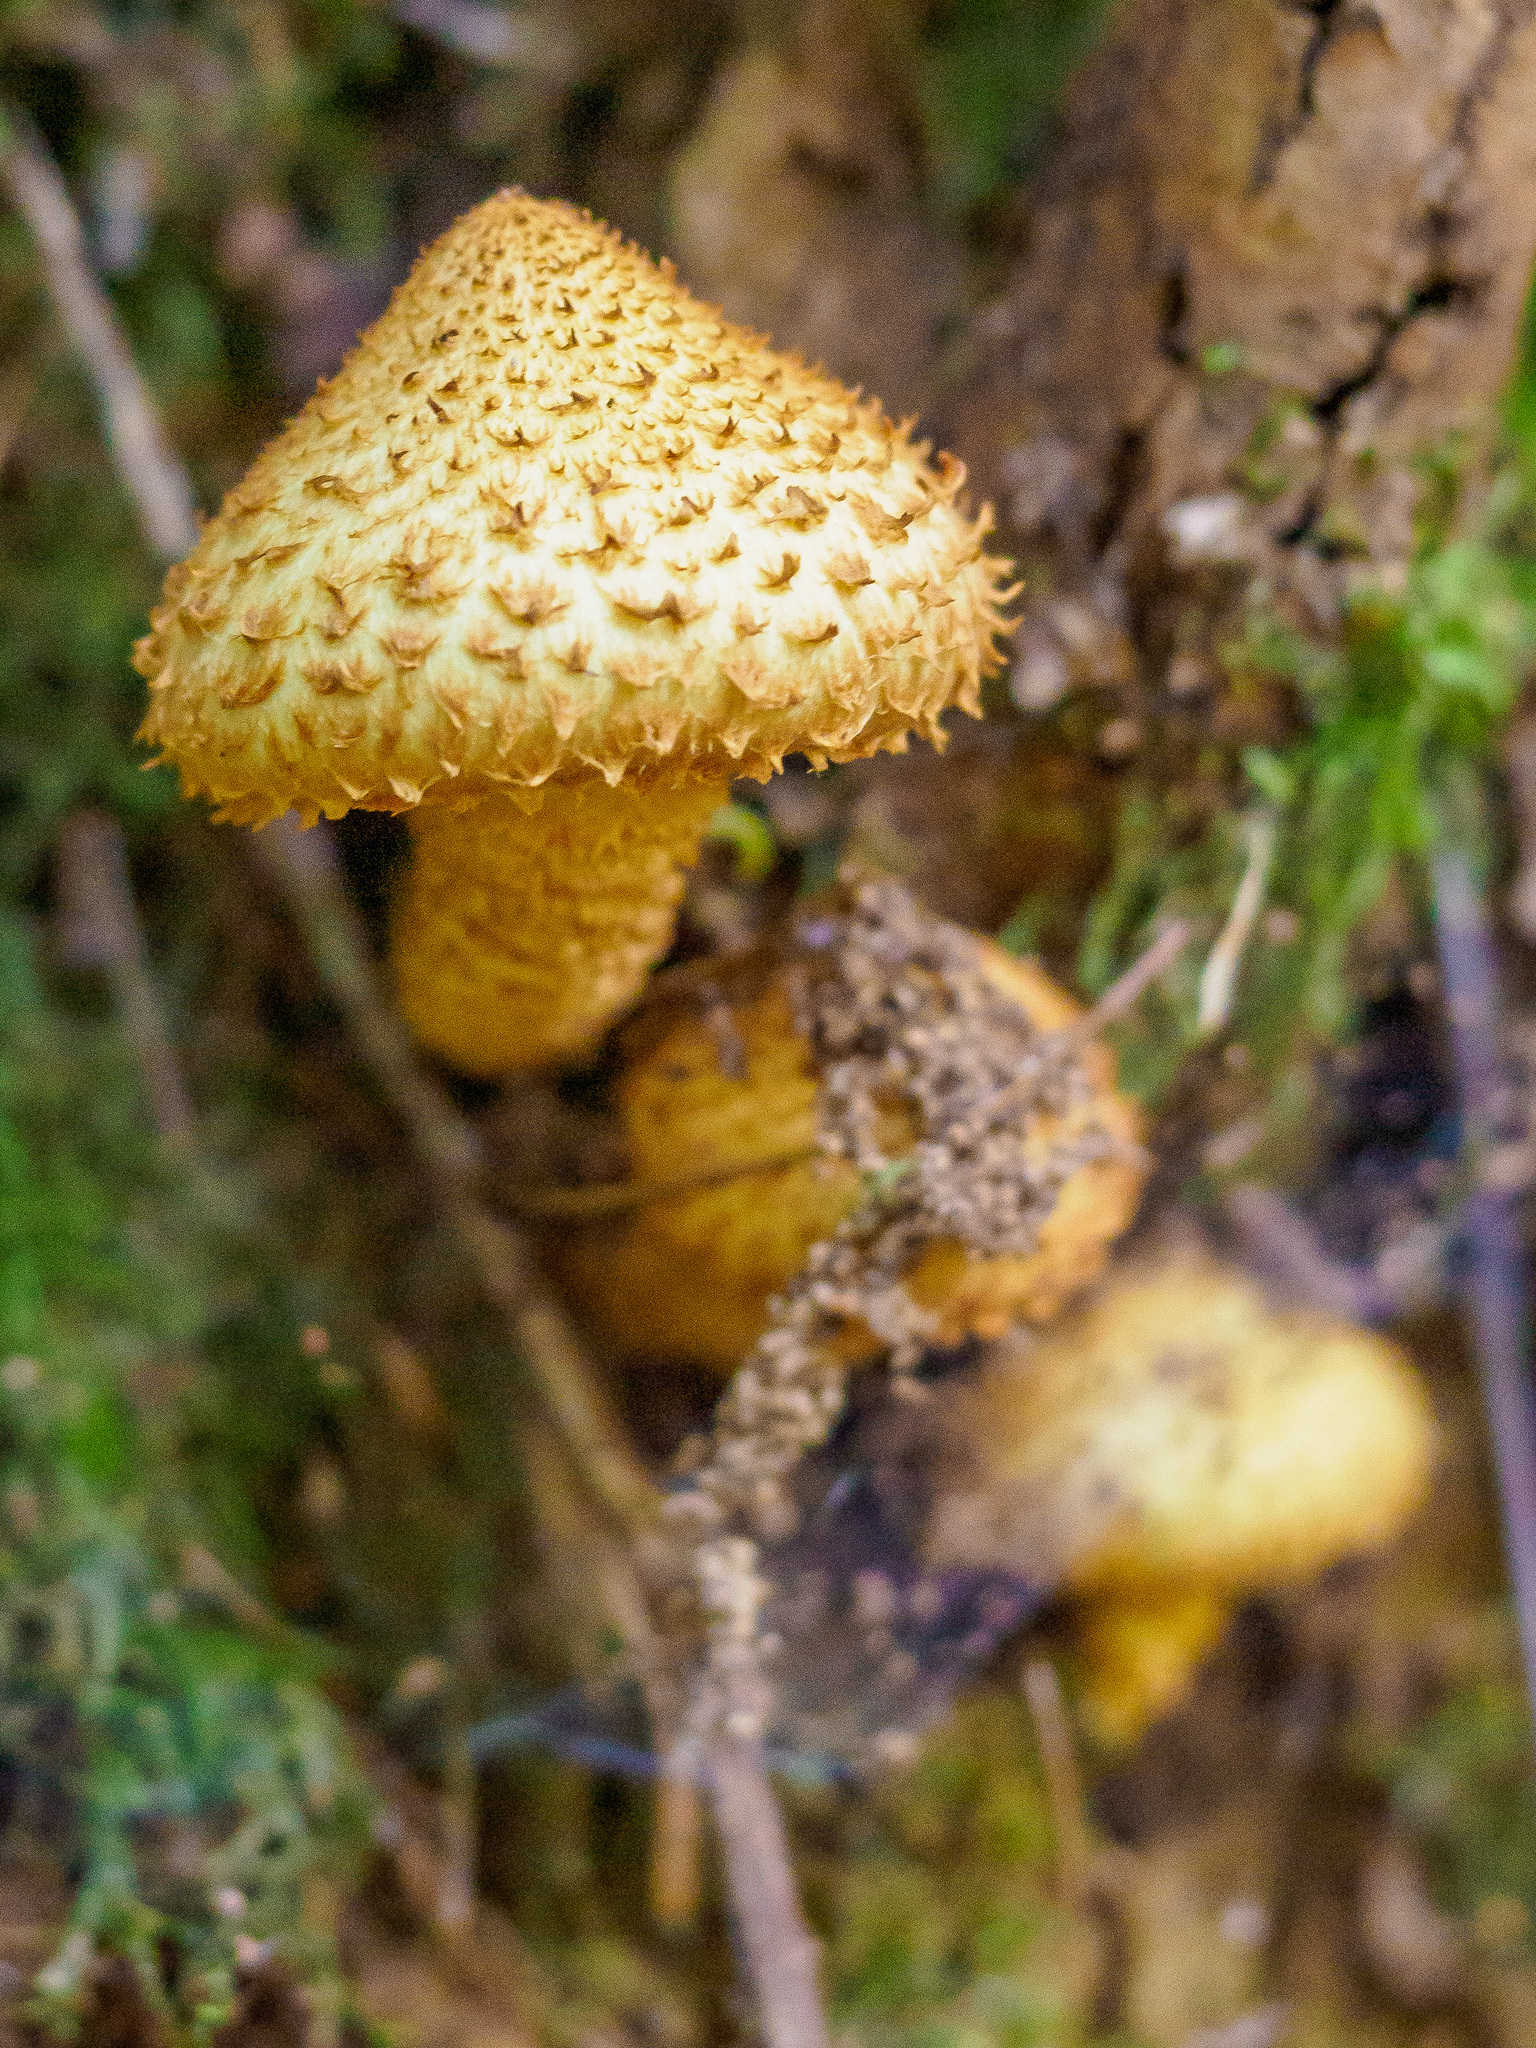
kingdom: Fungi
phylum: Basidiomycota
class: Agaricomycetes
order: Agaricales
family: Strophariaceae
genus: Pholiota
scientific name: Pholiota squarrosa
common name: Shaggy pholiota
